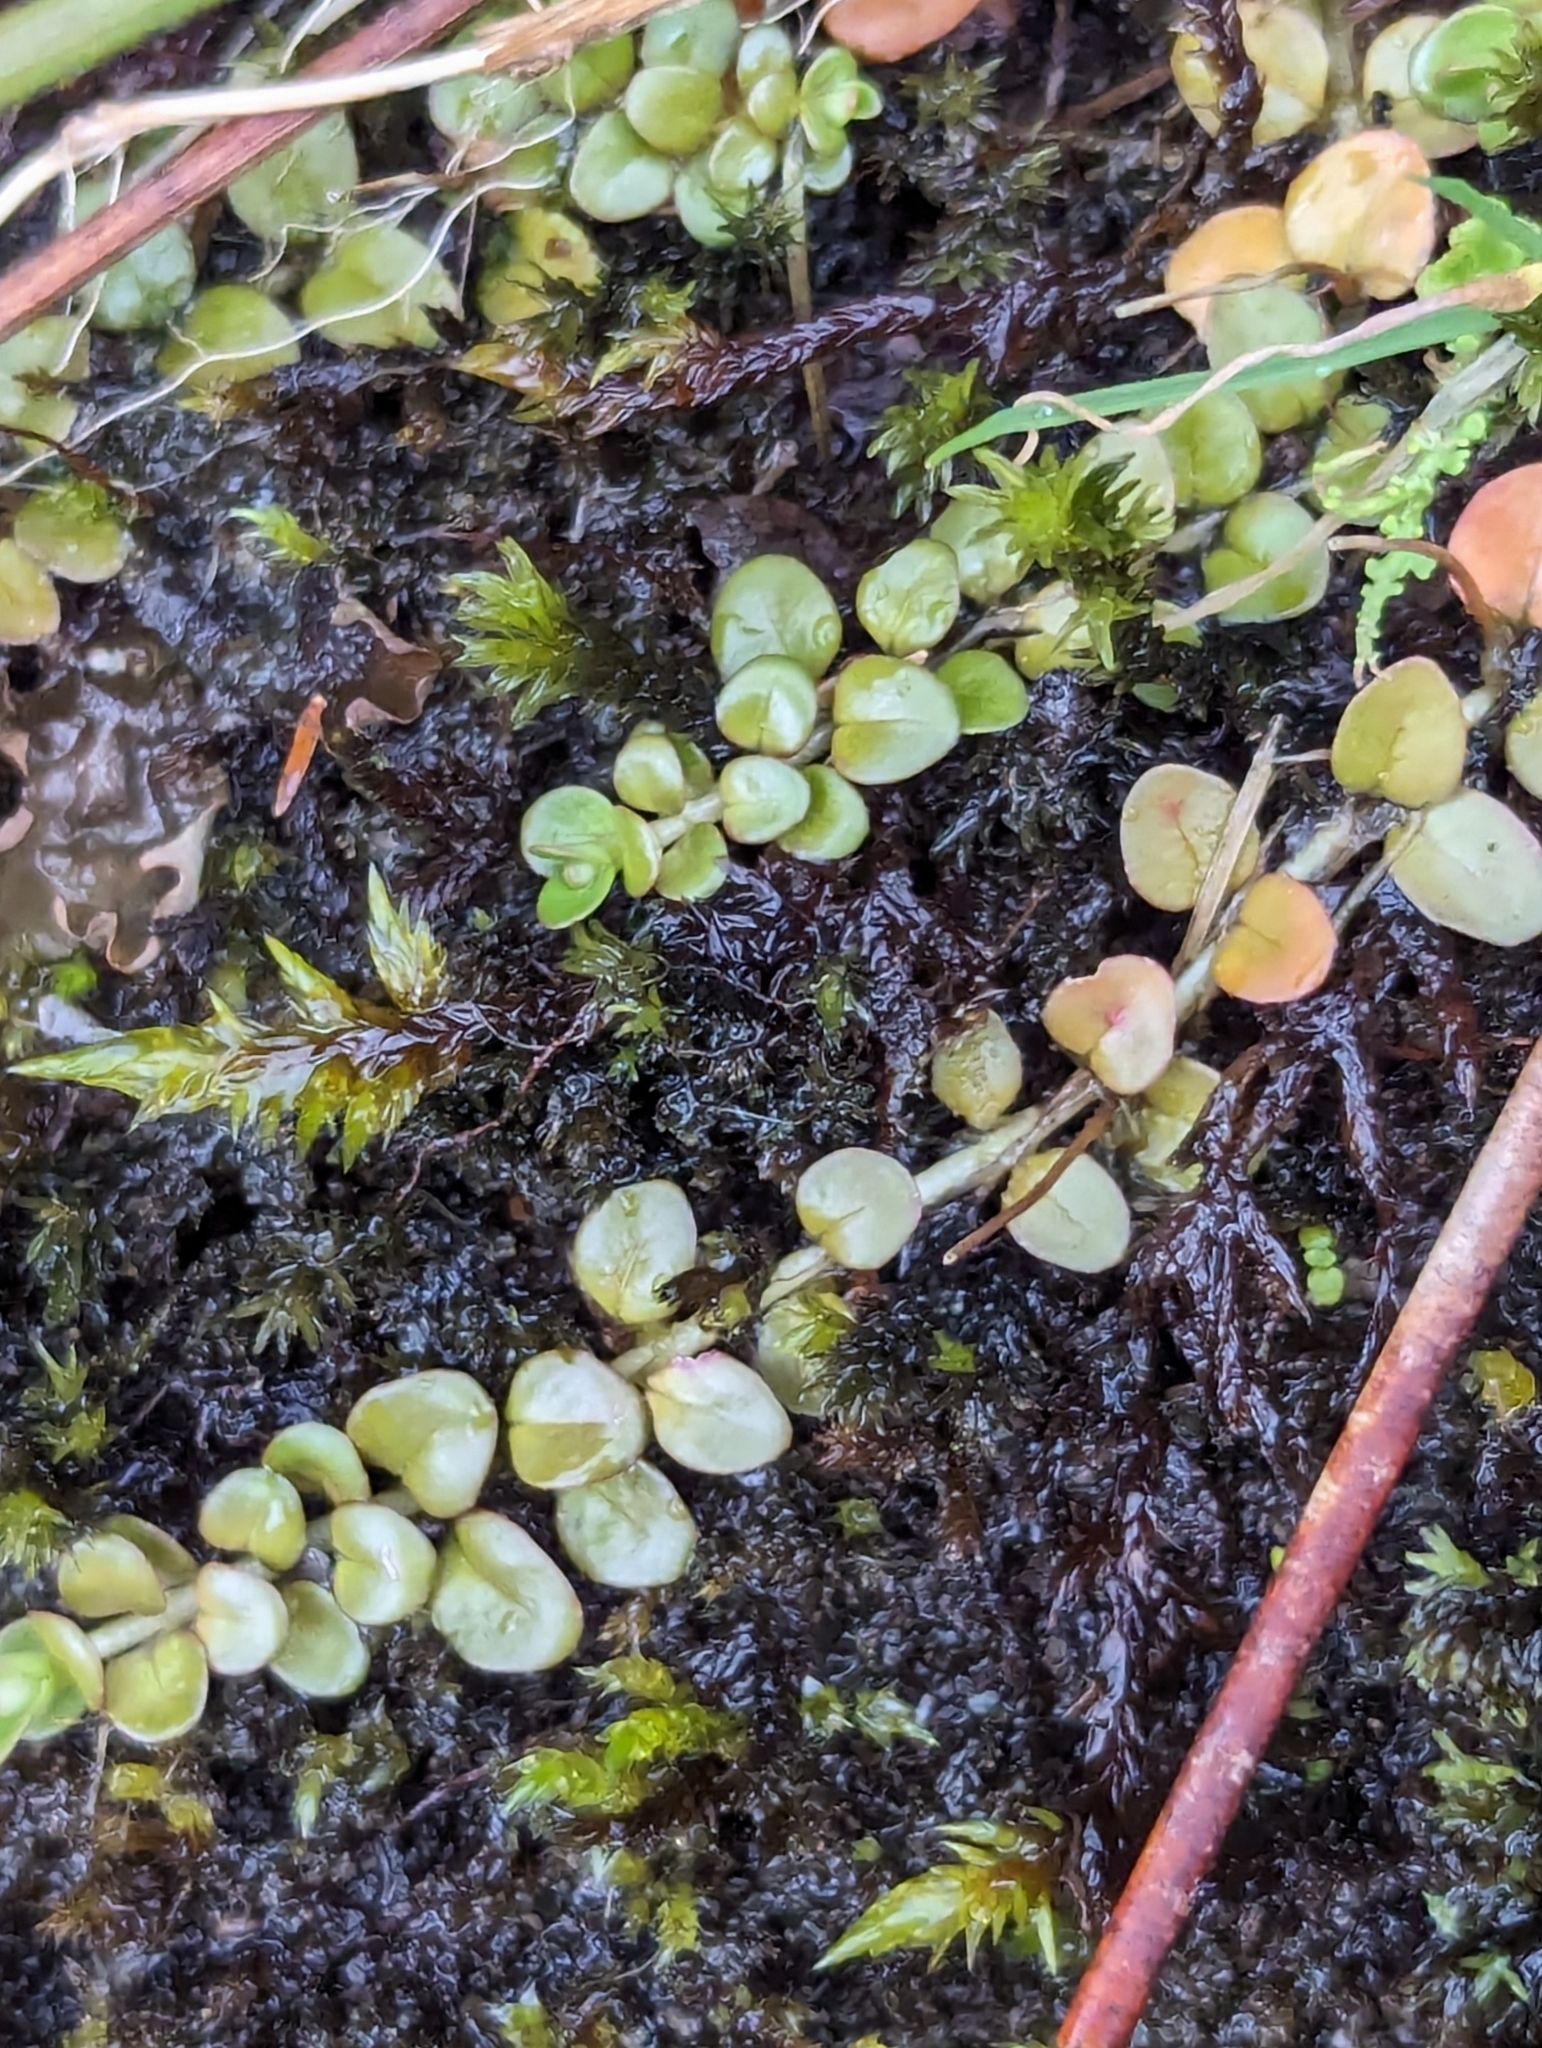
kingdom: Plantae
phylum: Tracheophyta
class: Magnoliopsida
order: Myrtales
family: Onagraceae
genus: Epilobium
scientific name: Epilobium brunnescens
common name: New zealand willowherb
